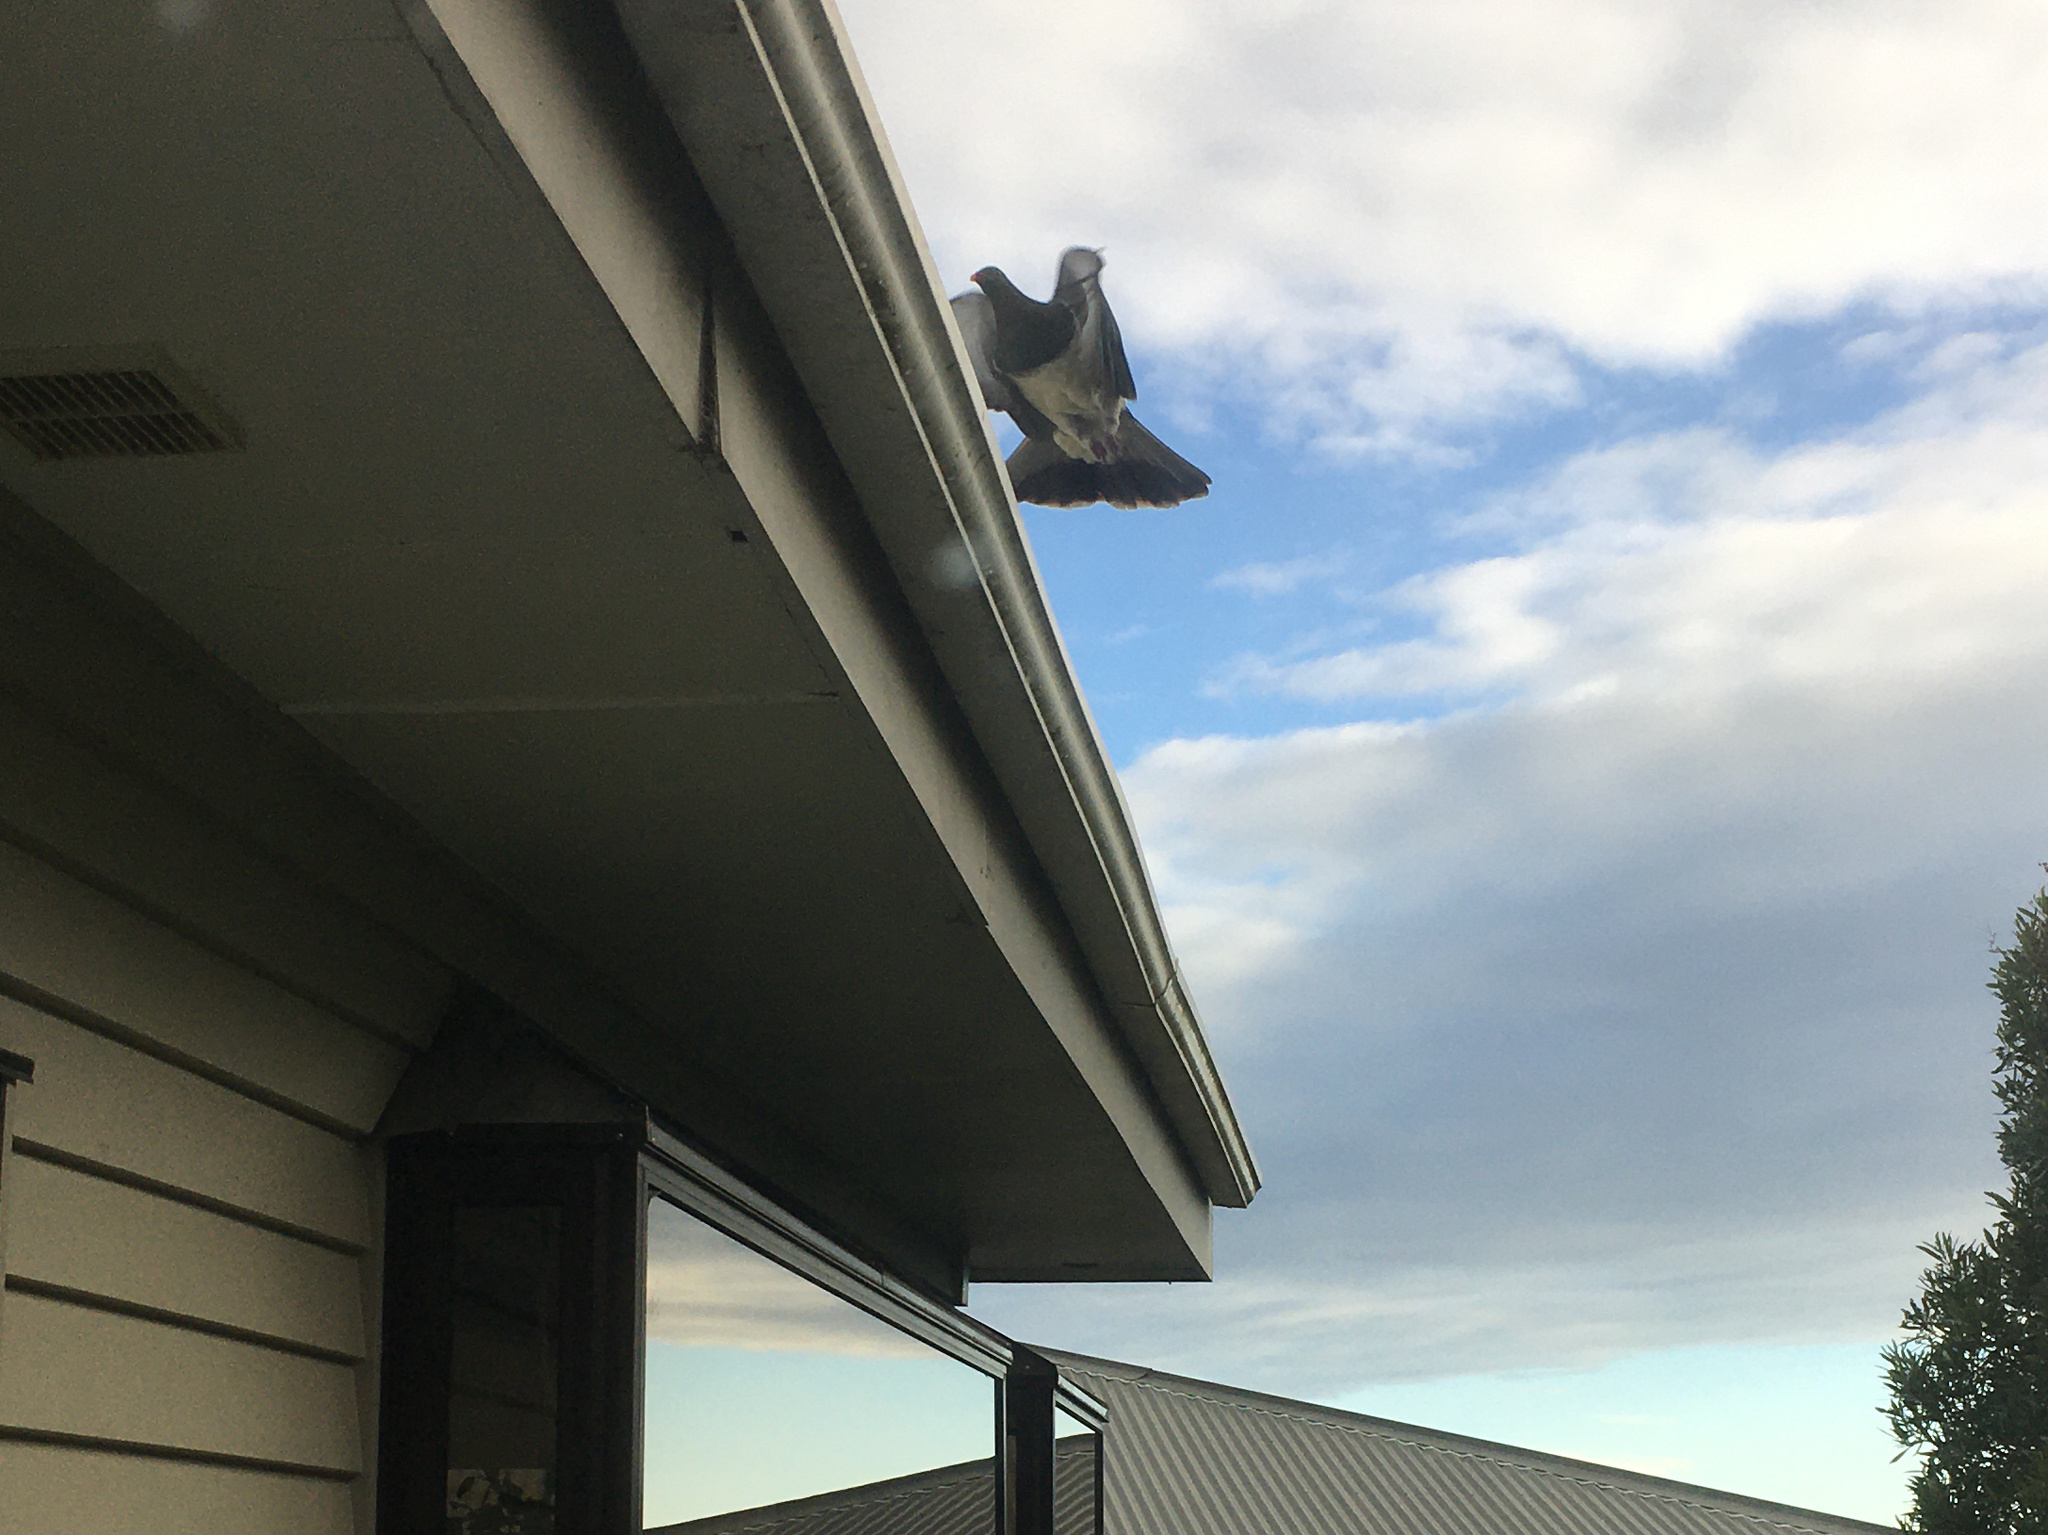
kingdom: Animalia
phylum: Chordata
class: Aves
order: Columbiformes
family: Columbidae
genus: Hemiphaga
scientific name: Hemiphaga novaeseelandiae
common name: New zealand pigeon
